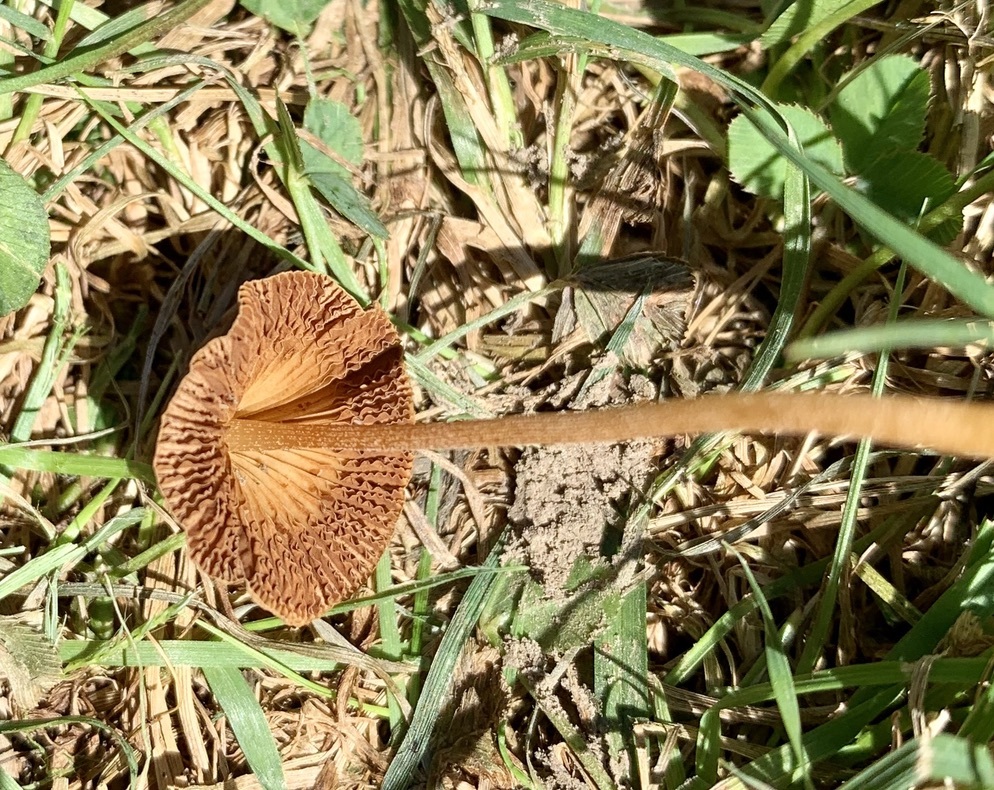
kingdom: Fungi
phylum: Basidiomycota
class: Agaricomycetes
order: Agaricales
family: Bolbitiaceae
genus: Conocybe
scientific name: Conocybe apala
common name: Milky conecap
